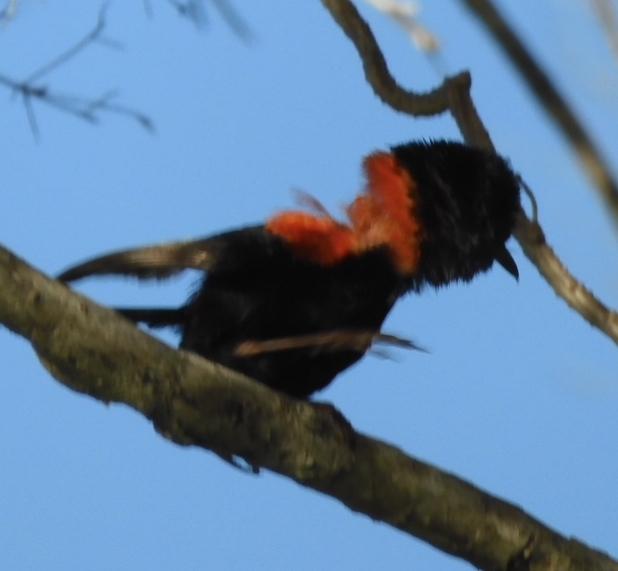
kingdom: Animalia
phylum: Chordata
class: Aves
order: Passeriformes
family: Maluridae
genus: Malurus
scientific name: Malurus melanocephalus
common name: Red-backed fairywren
